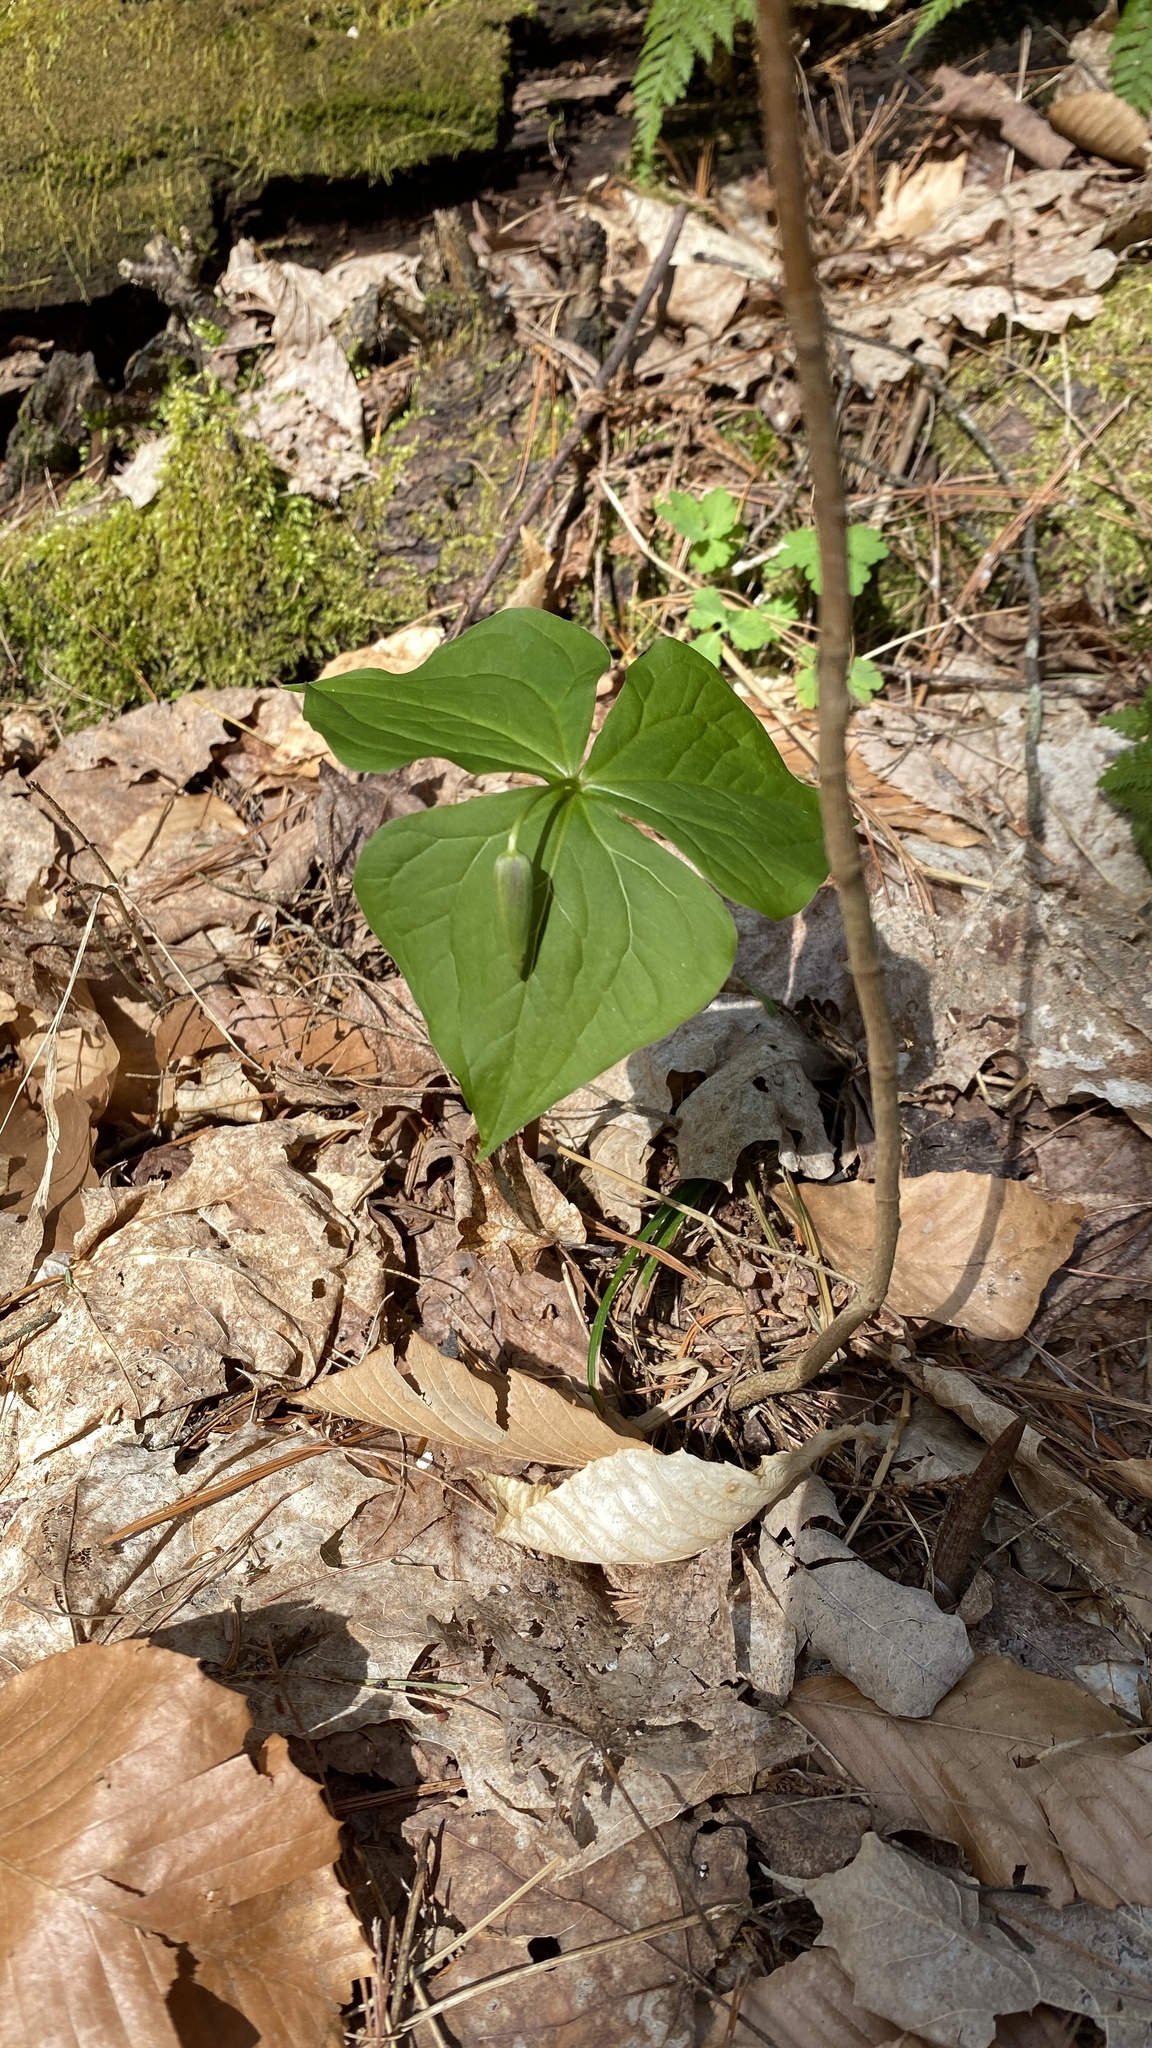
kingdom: Plantae
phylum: Tracheophyta
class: Liliopsida
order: Liliales
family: Melanthiaceae
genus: Trillium
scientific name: Trillium erectum
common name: Purple trillium
